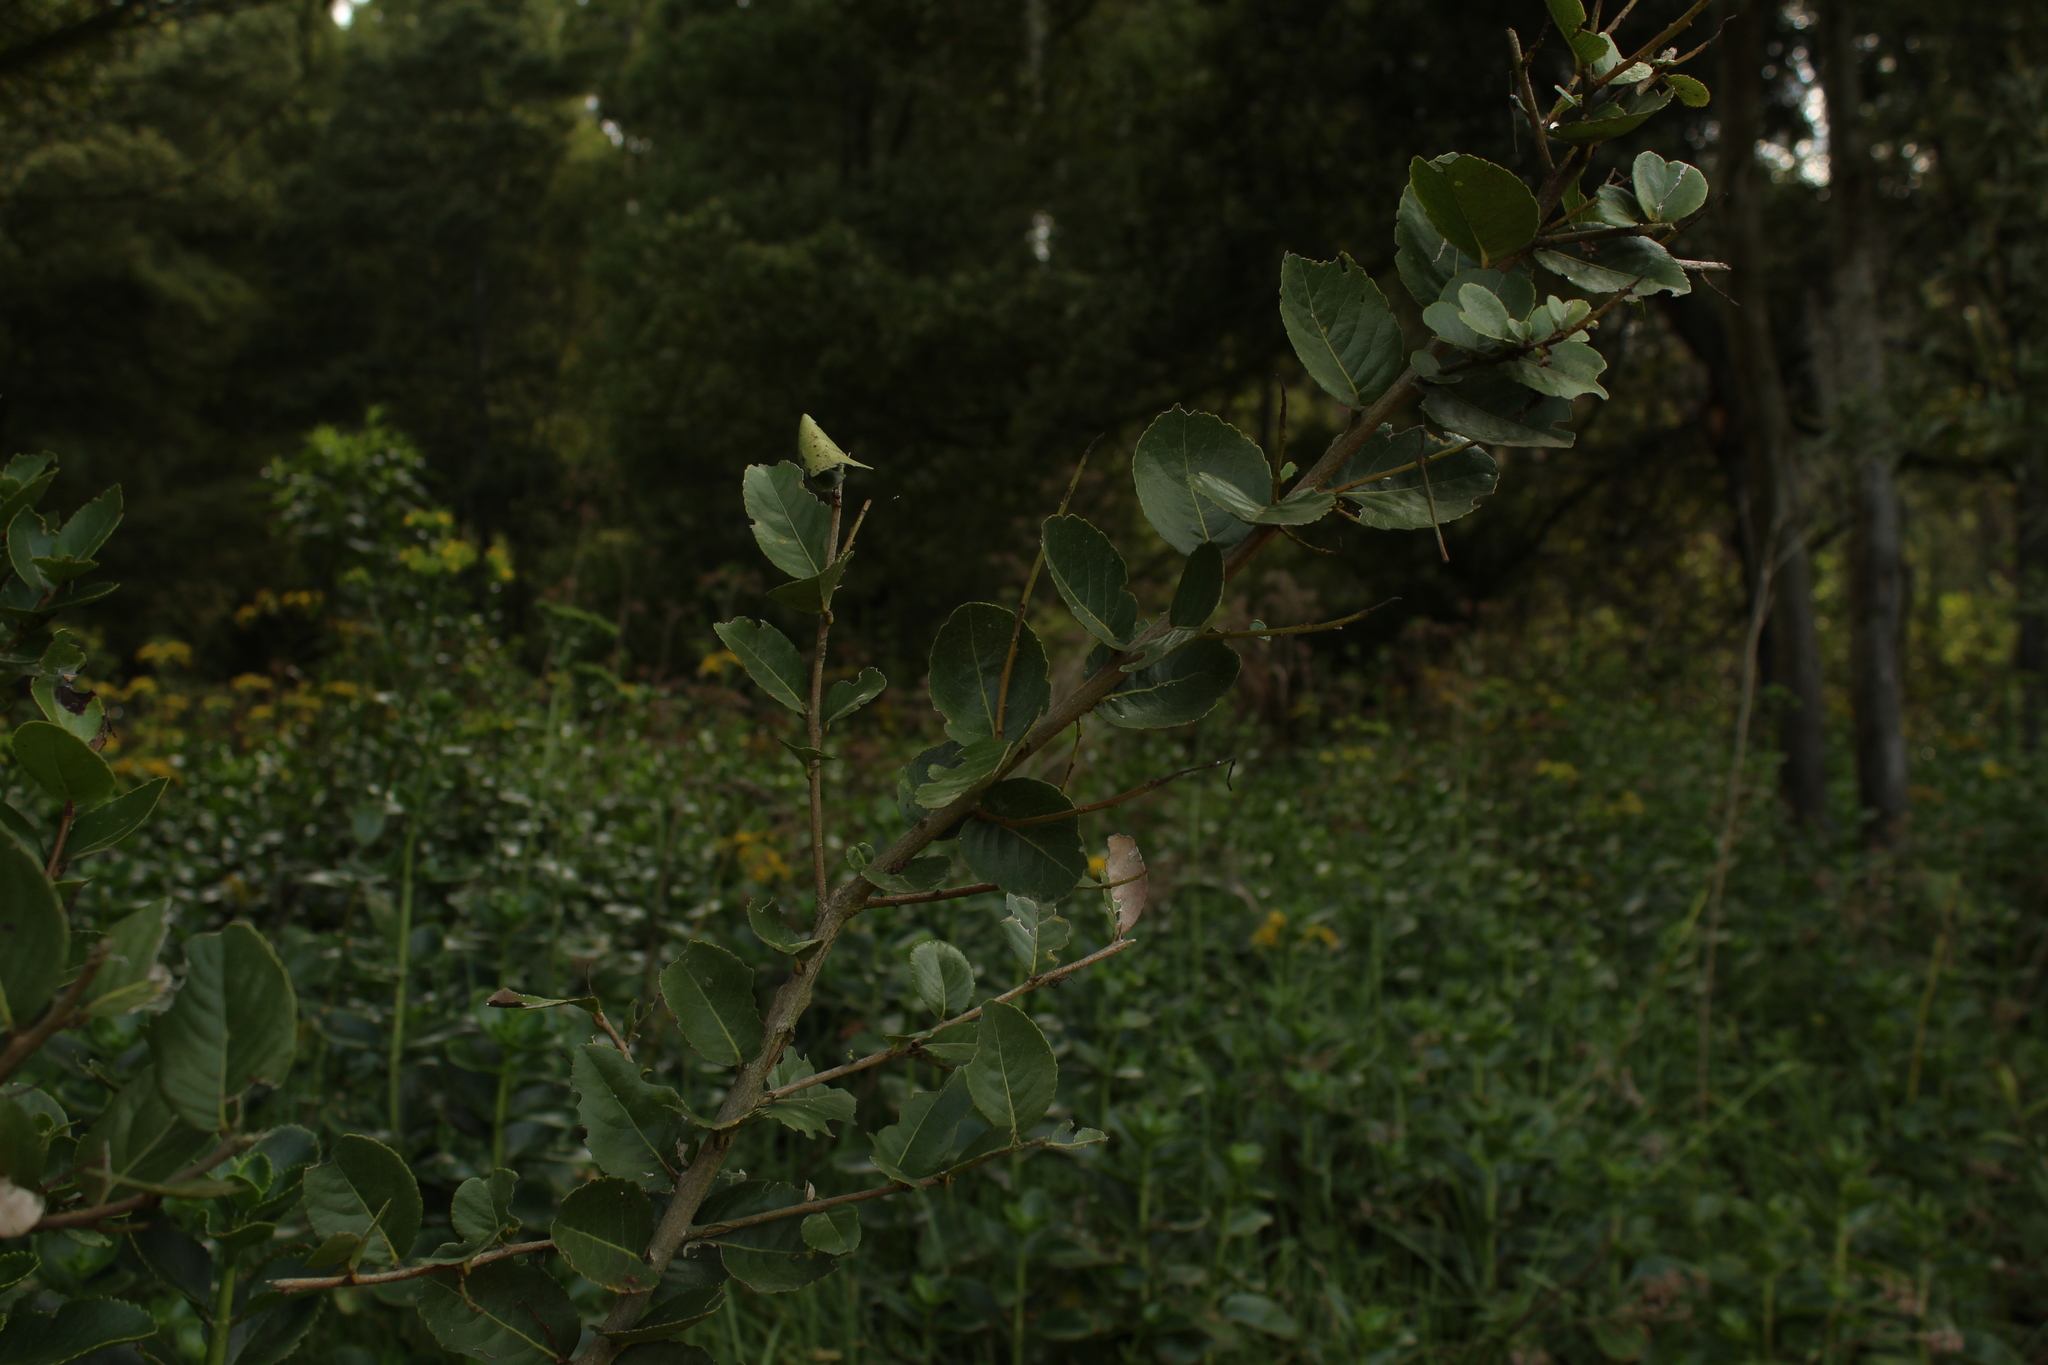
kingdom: Plantae
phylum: Tracheophyta
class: Magnoliopsida
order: Malpighiales
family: Salicaceae
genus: Xylosma
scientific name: Xylosma spiculifera
